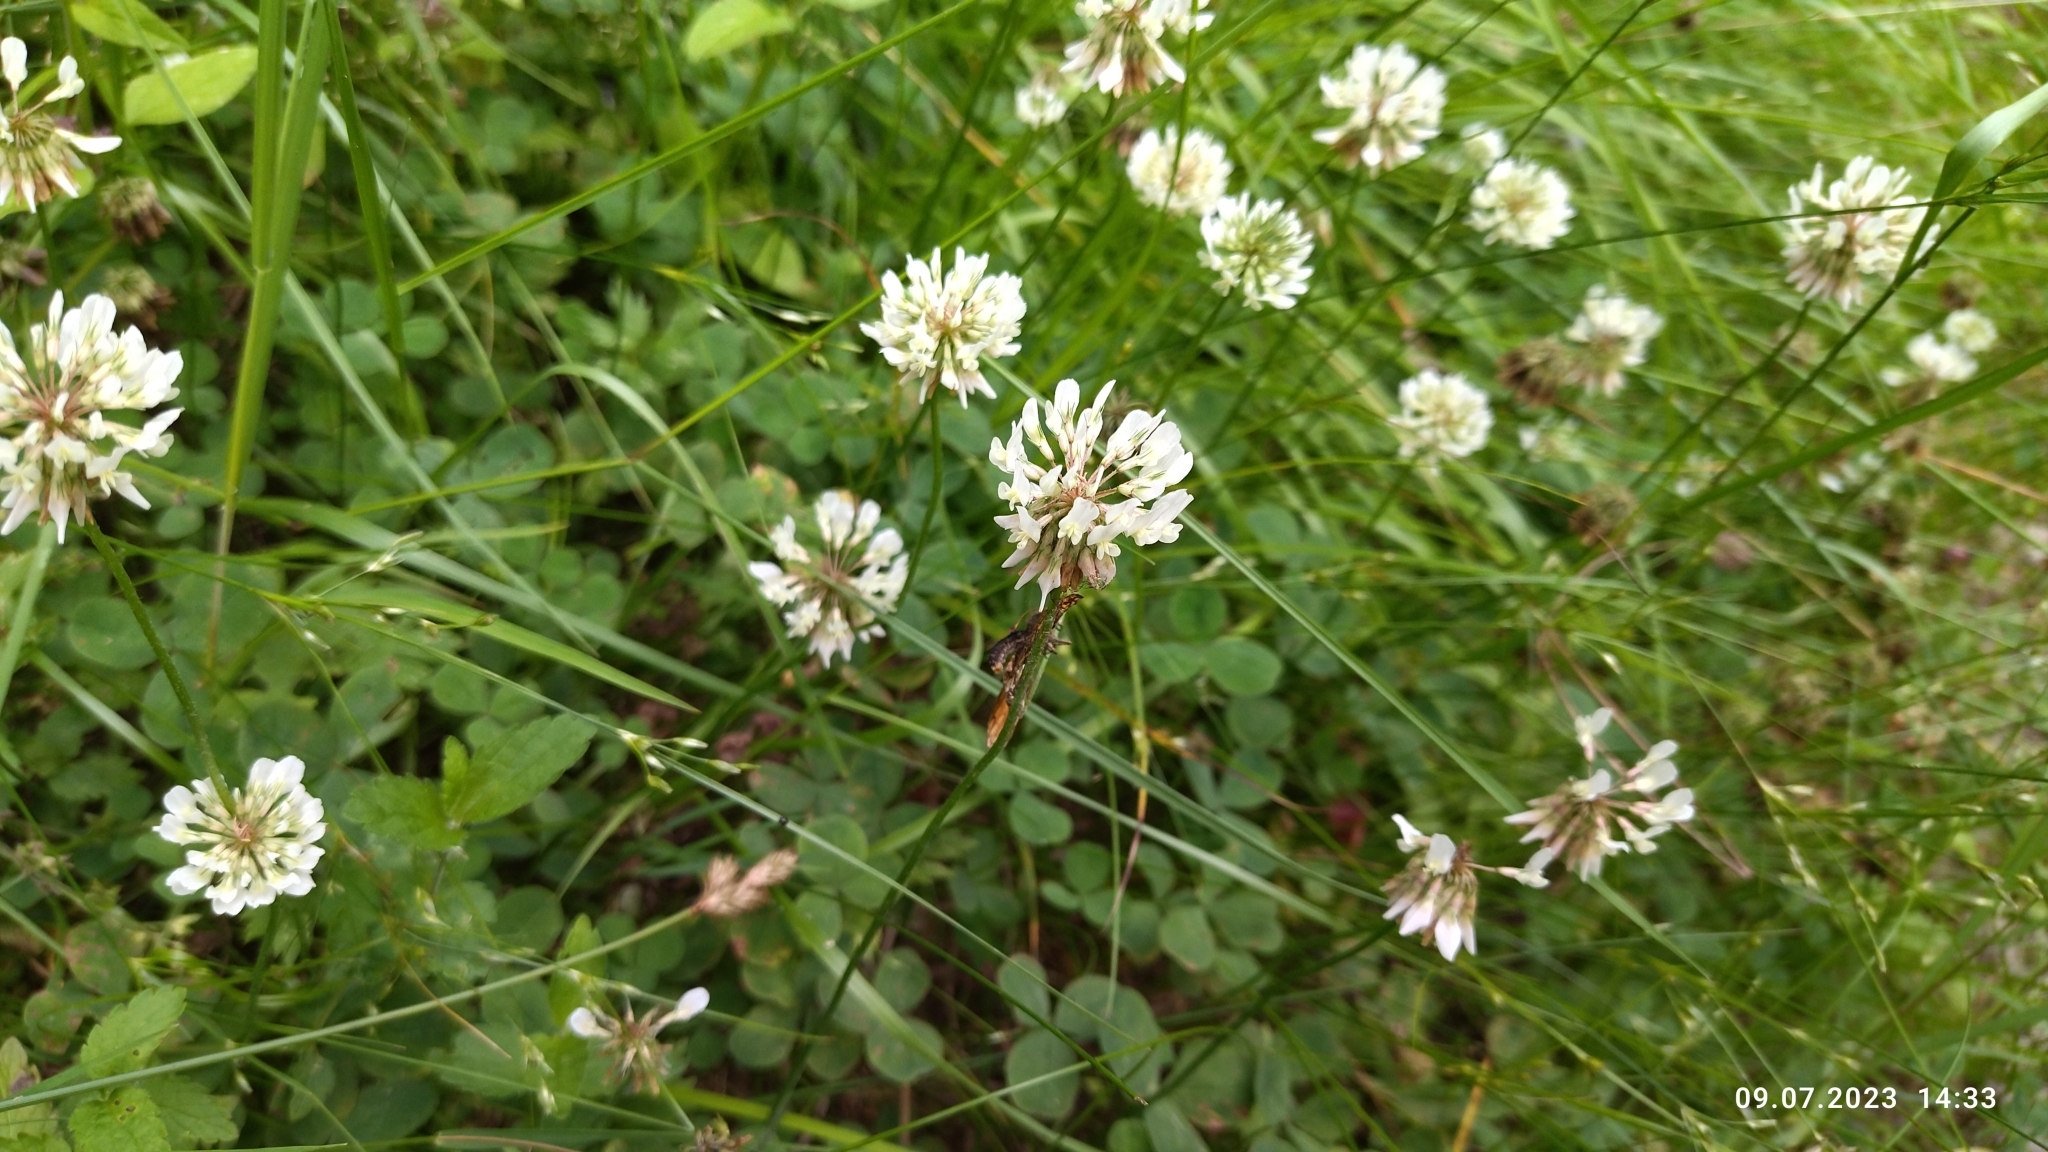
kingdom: Plantae
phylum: Tracheophyta
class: Magnoliopsida
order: Fabales
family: Fabaceae
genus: Trifolium
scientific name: Trifolium repens
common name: White clover
